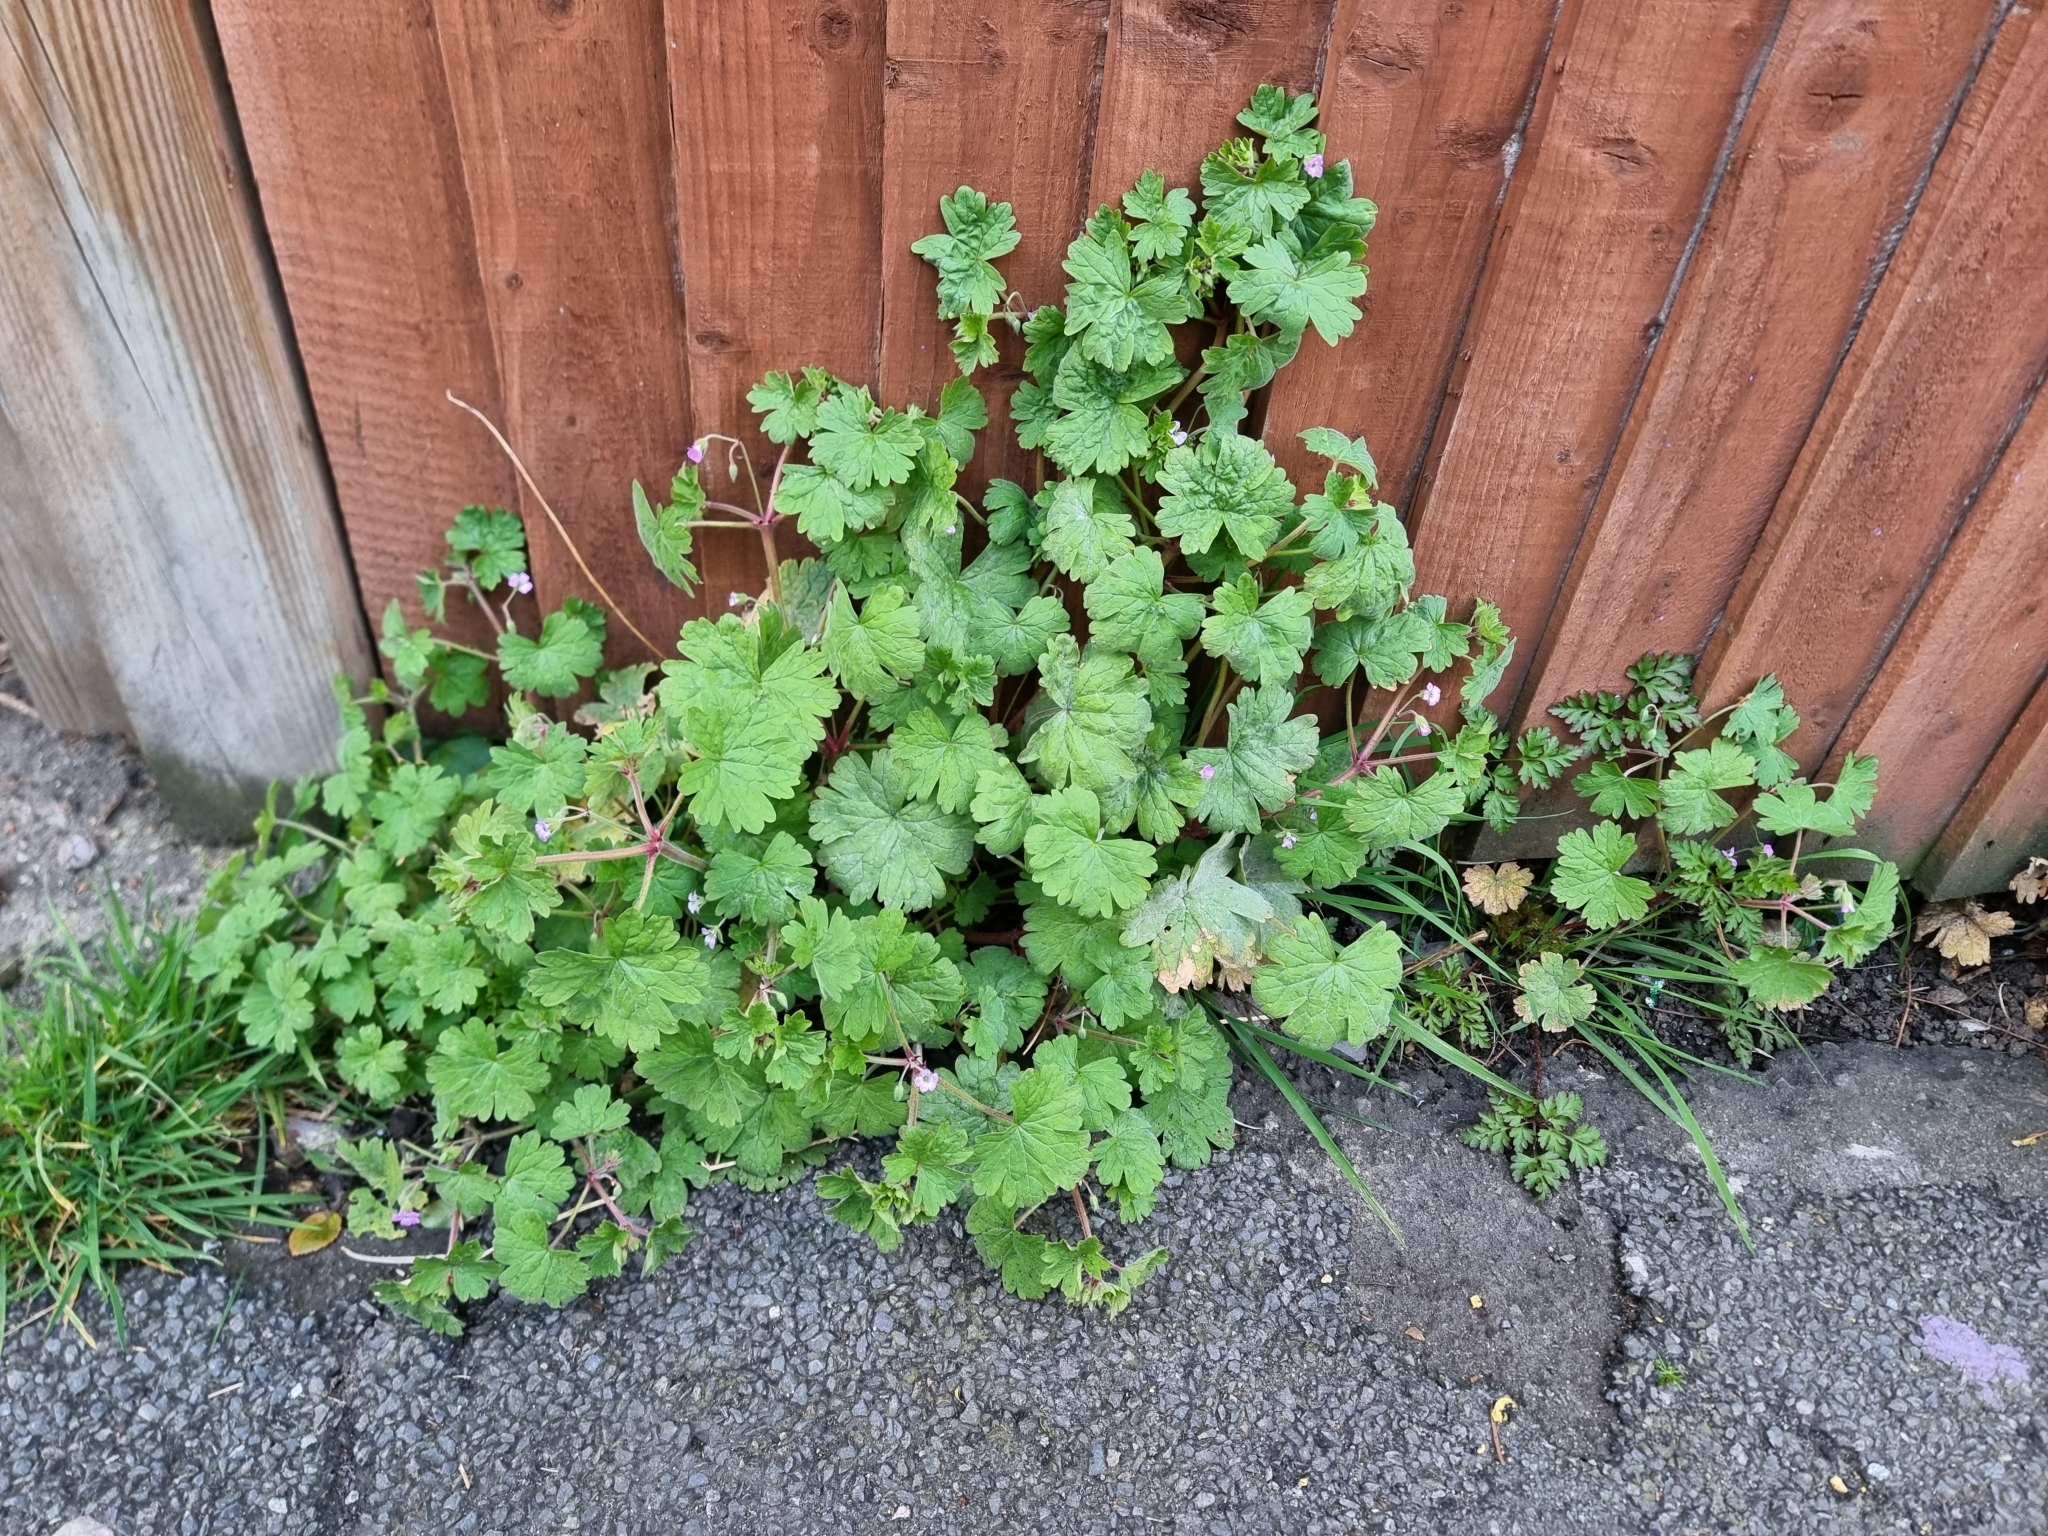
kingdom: Plantae
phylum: Tracheophyta
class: Magnoliopsida
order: Geraniales
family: Geraniaceae
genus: Geranium
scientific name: Geranium rotundifolium
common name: Round-leaved crane's-bill
